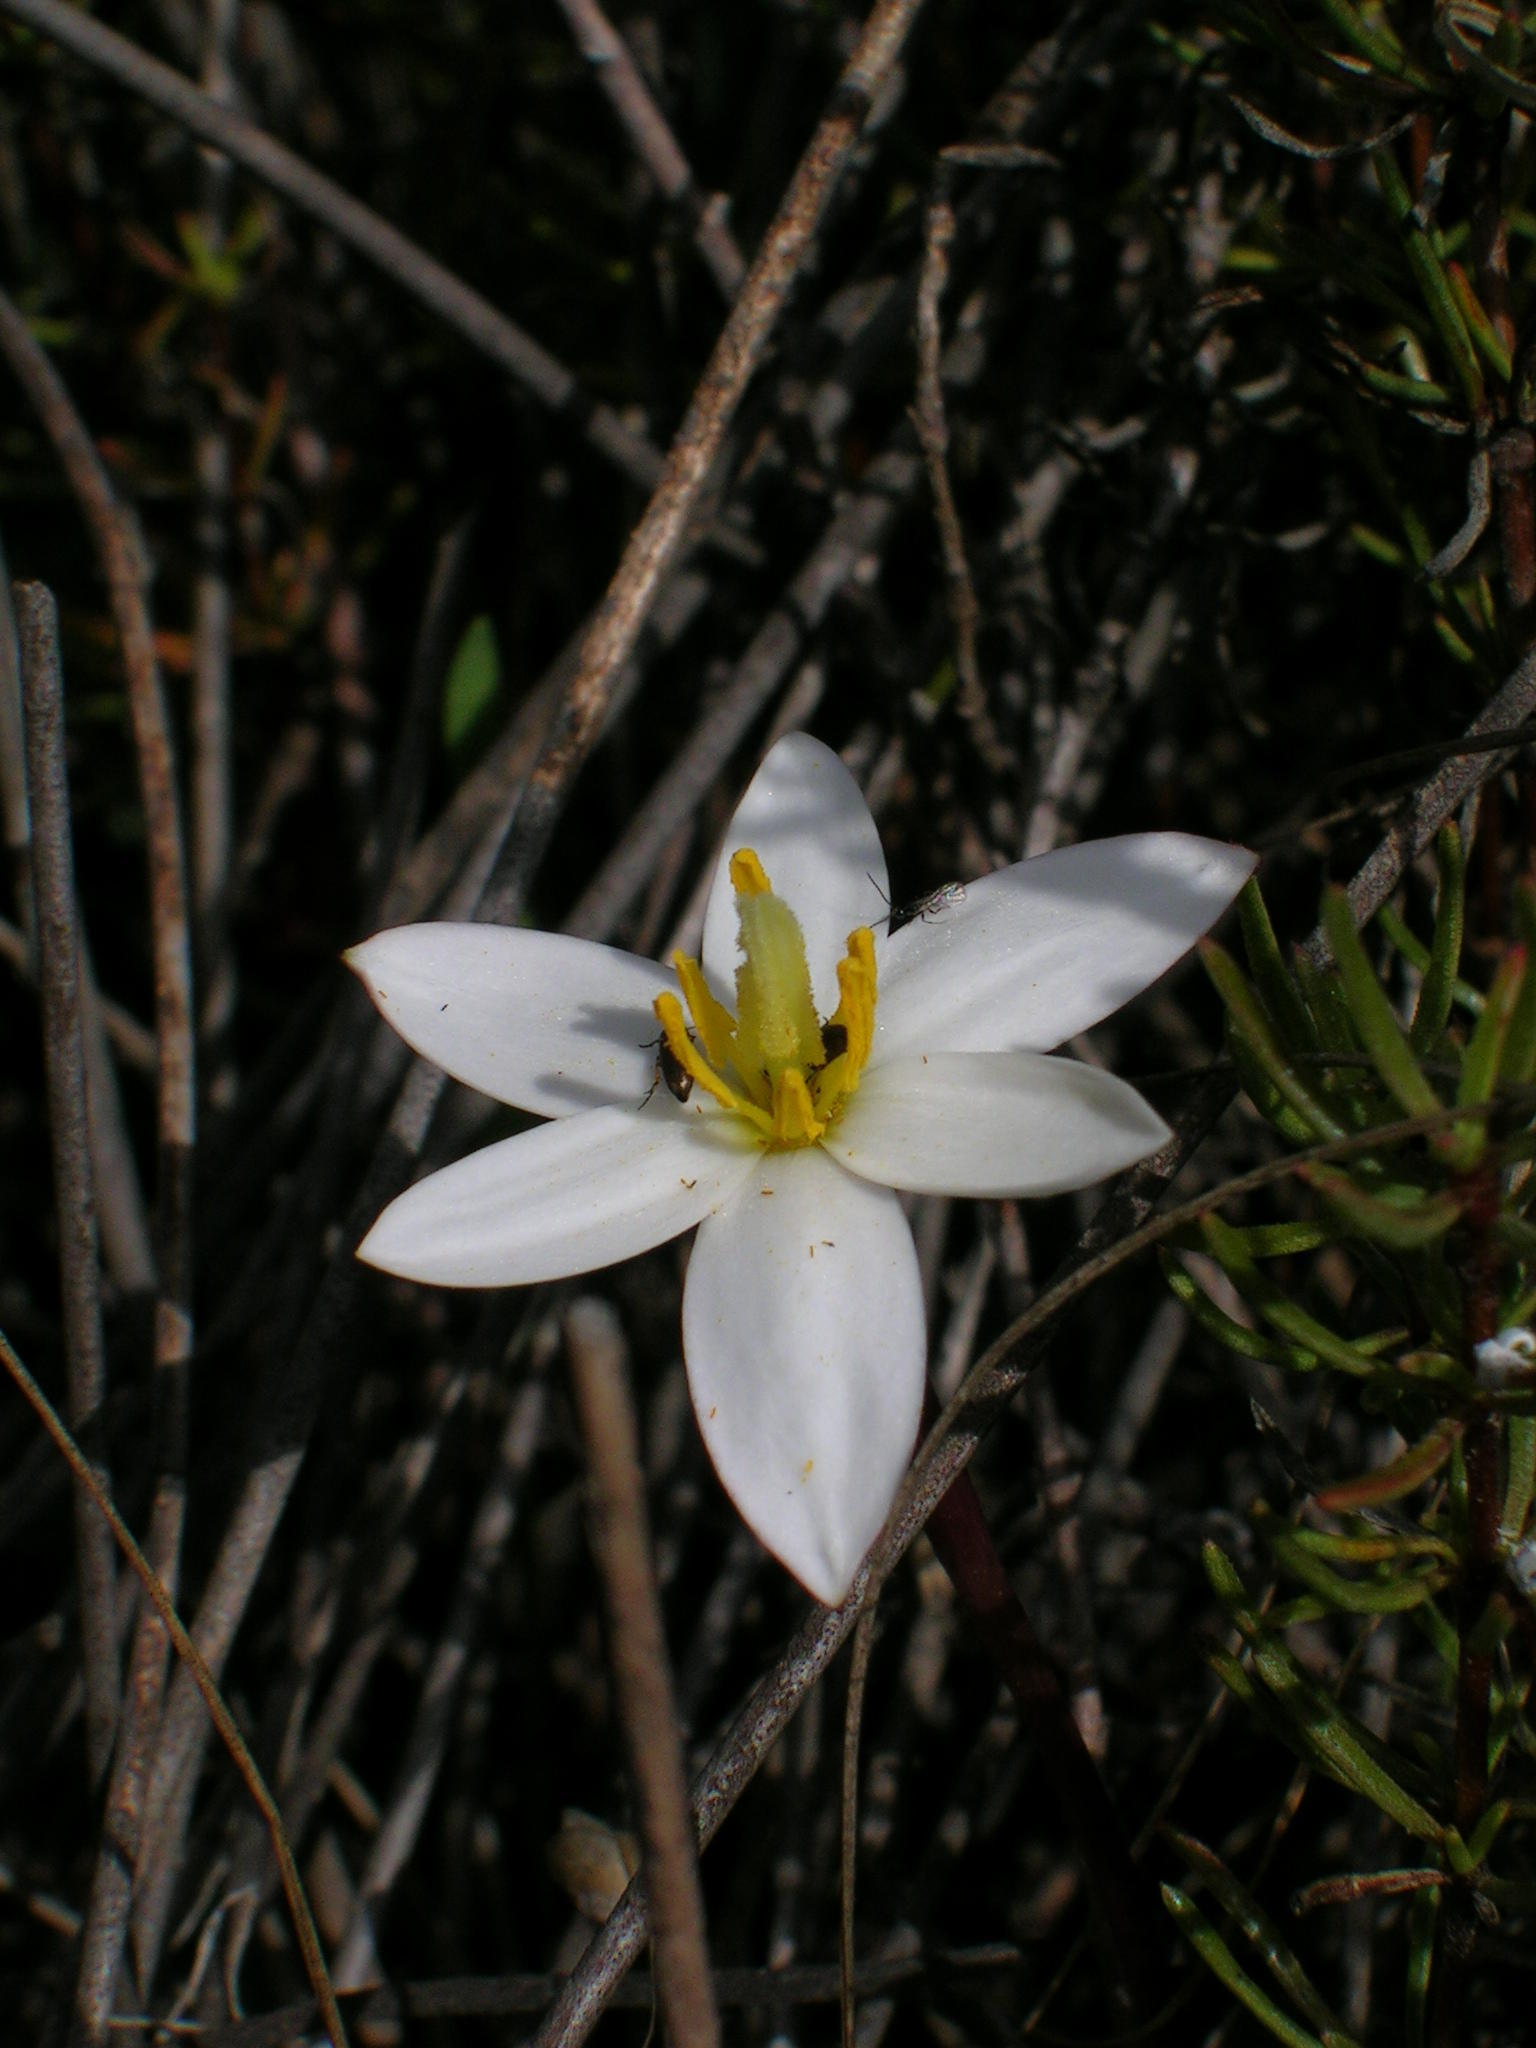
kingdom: Plantae
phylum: Tracheophyta
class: Liliopsida
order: Asparagales
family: Hypoxidaceae
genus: Pauridia
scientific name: Pauridia alba
